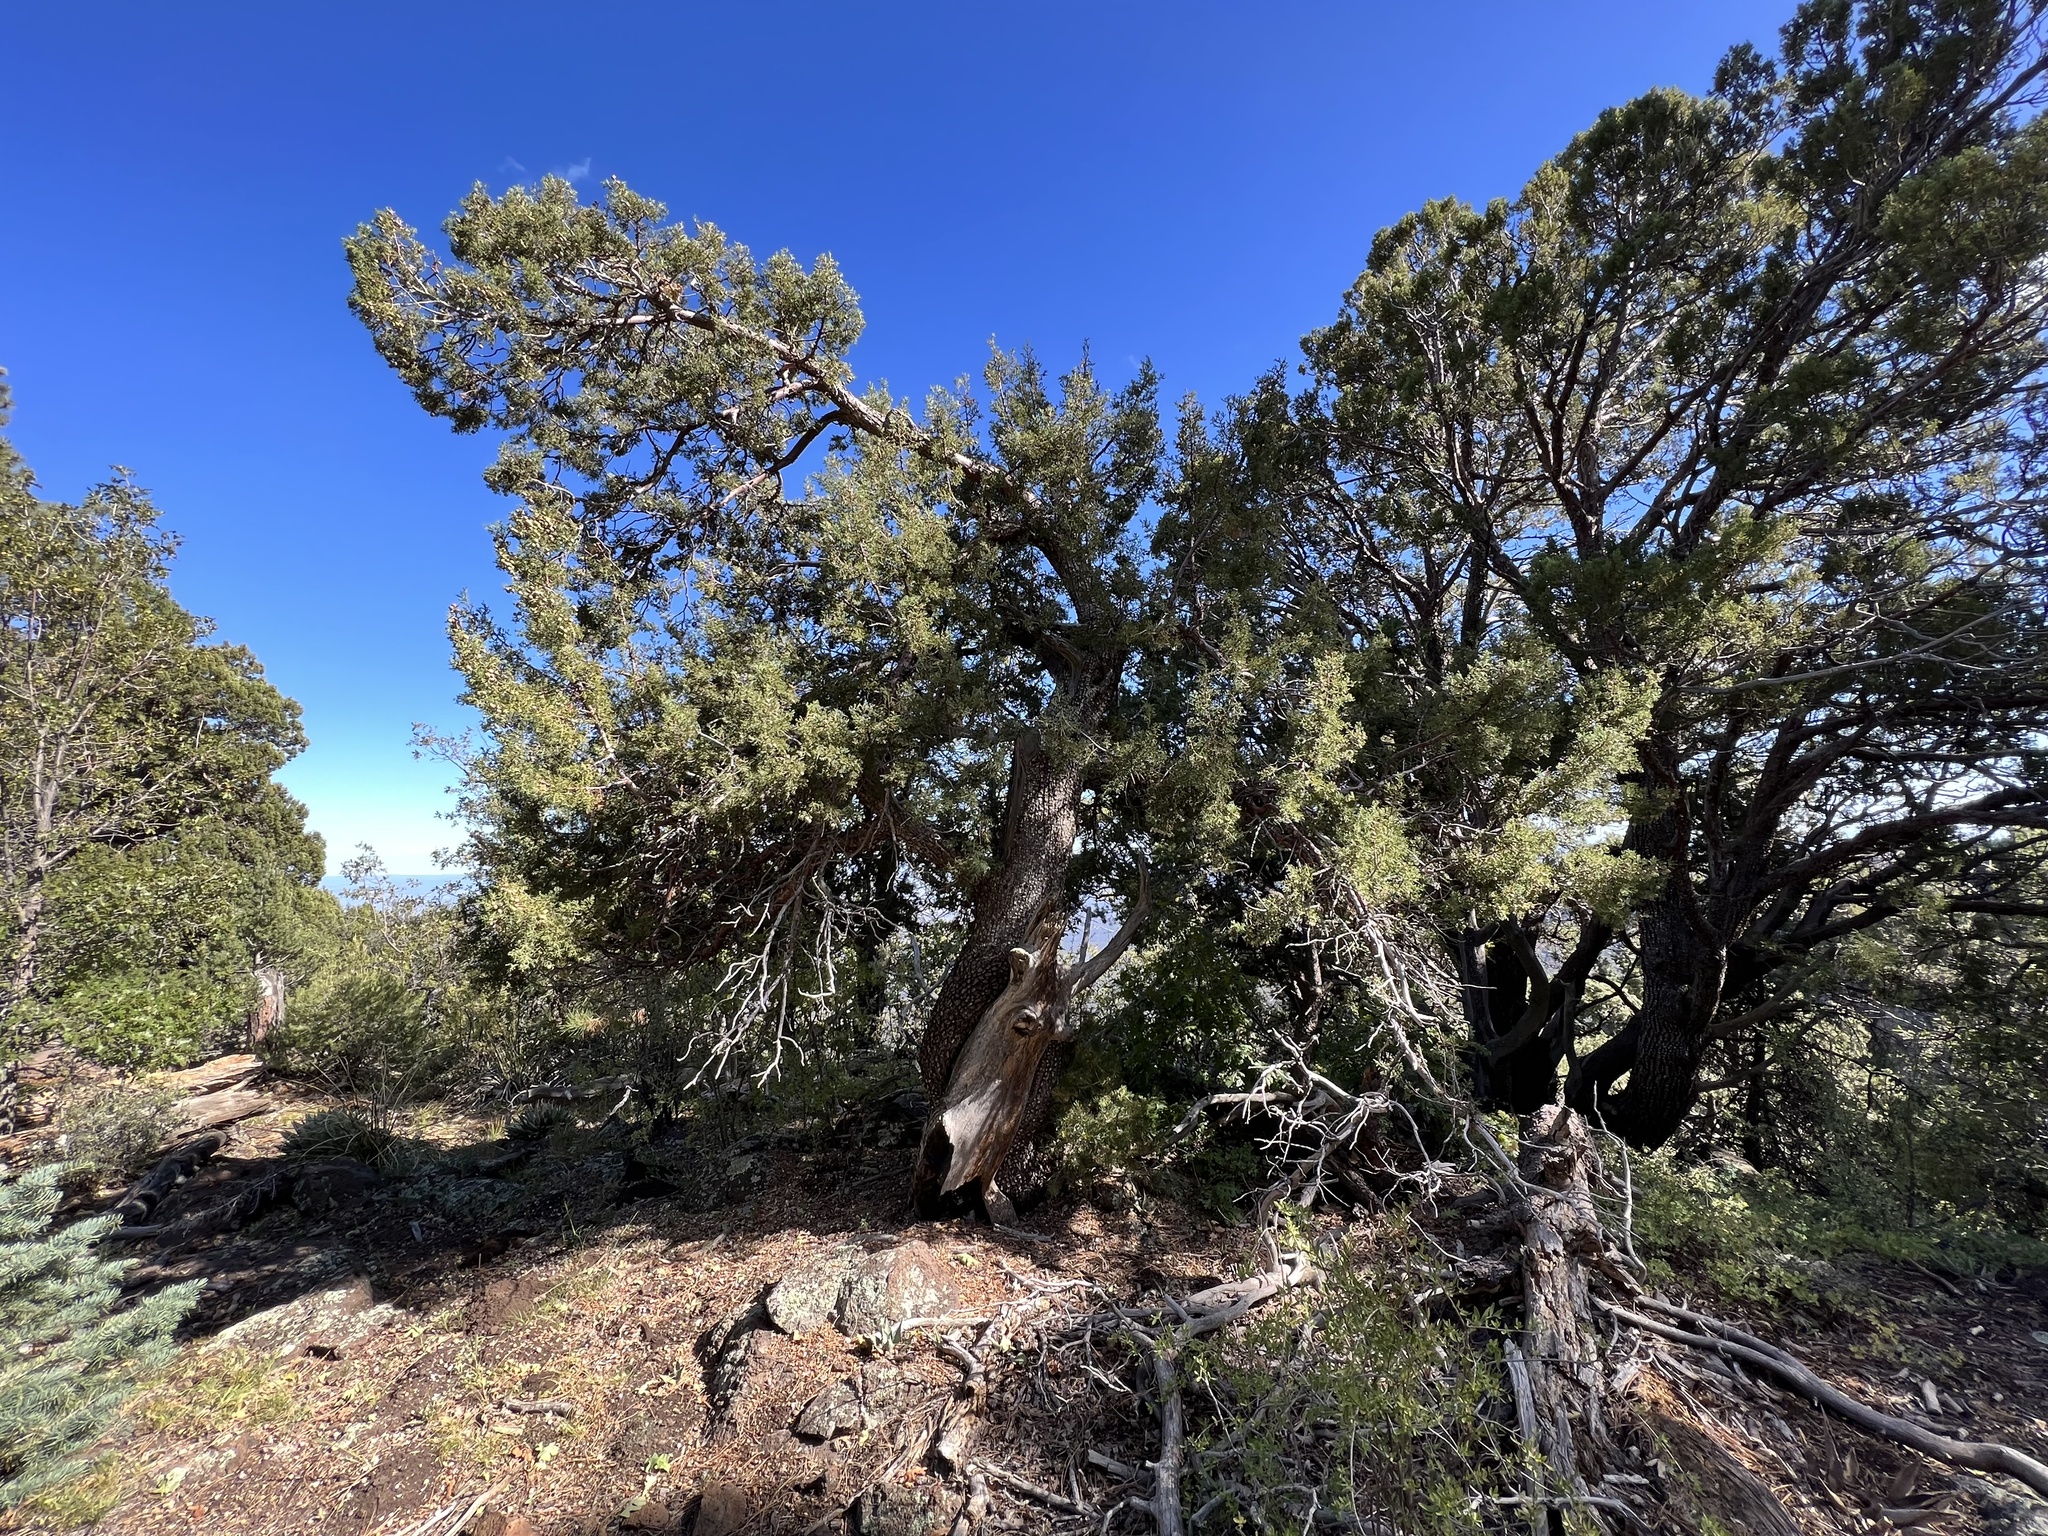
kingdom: Plantae
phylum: Tracheophyta
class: Pinopsida
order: Pinales
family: Cupressaceae
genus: Juniperus
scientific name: Juniperus deppeana
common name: Alligator juniper
